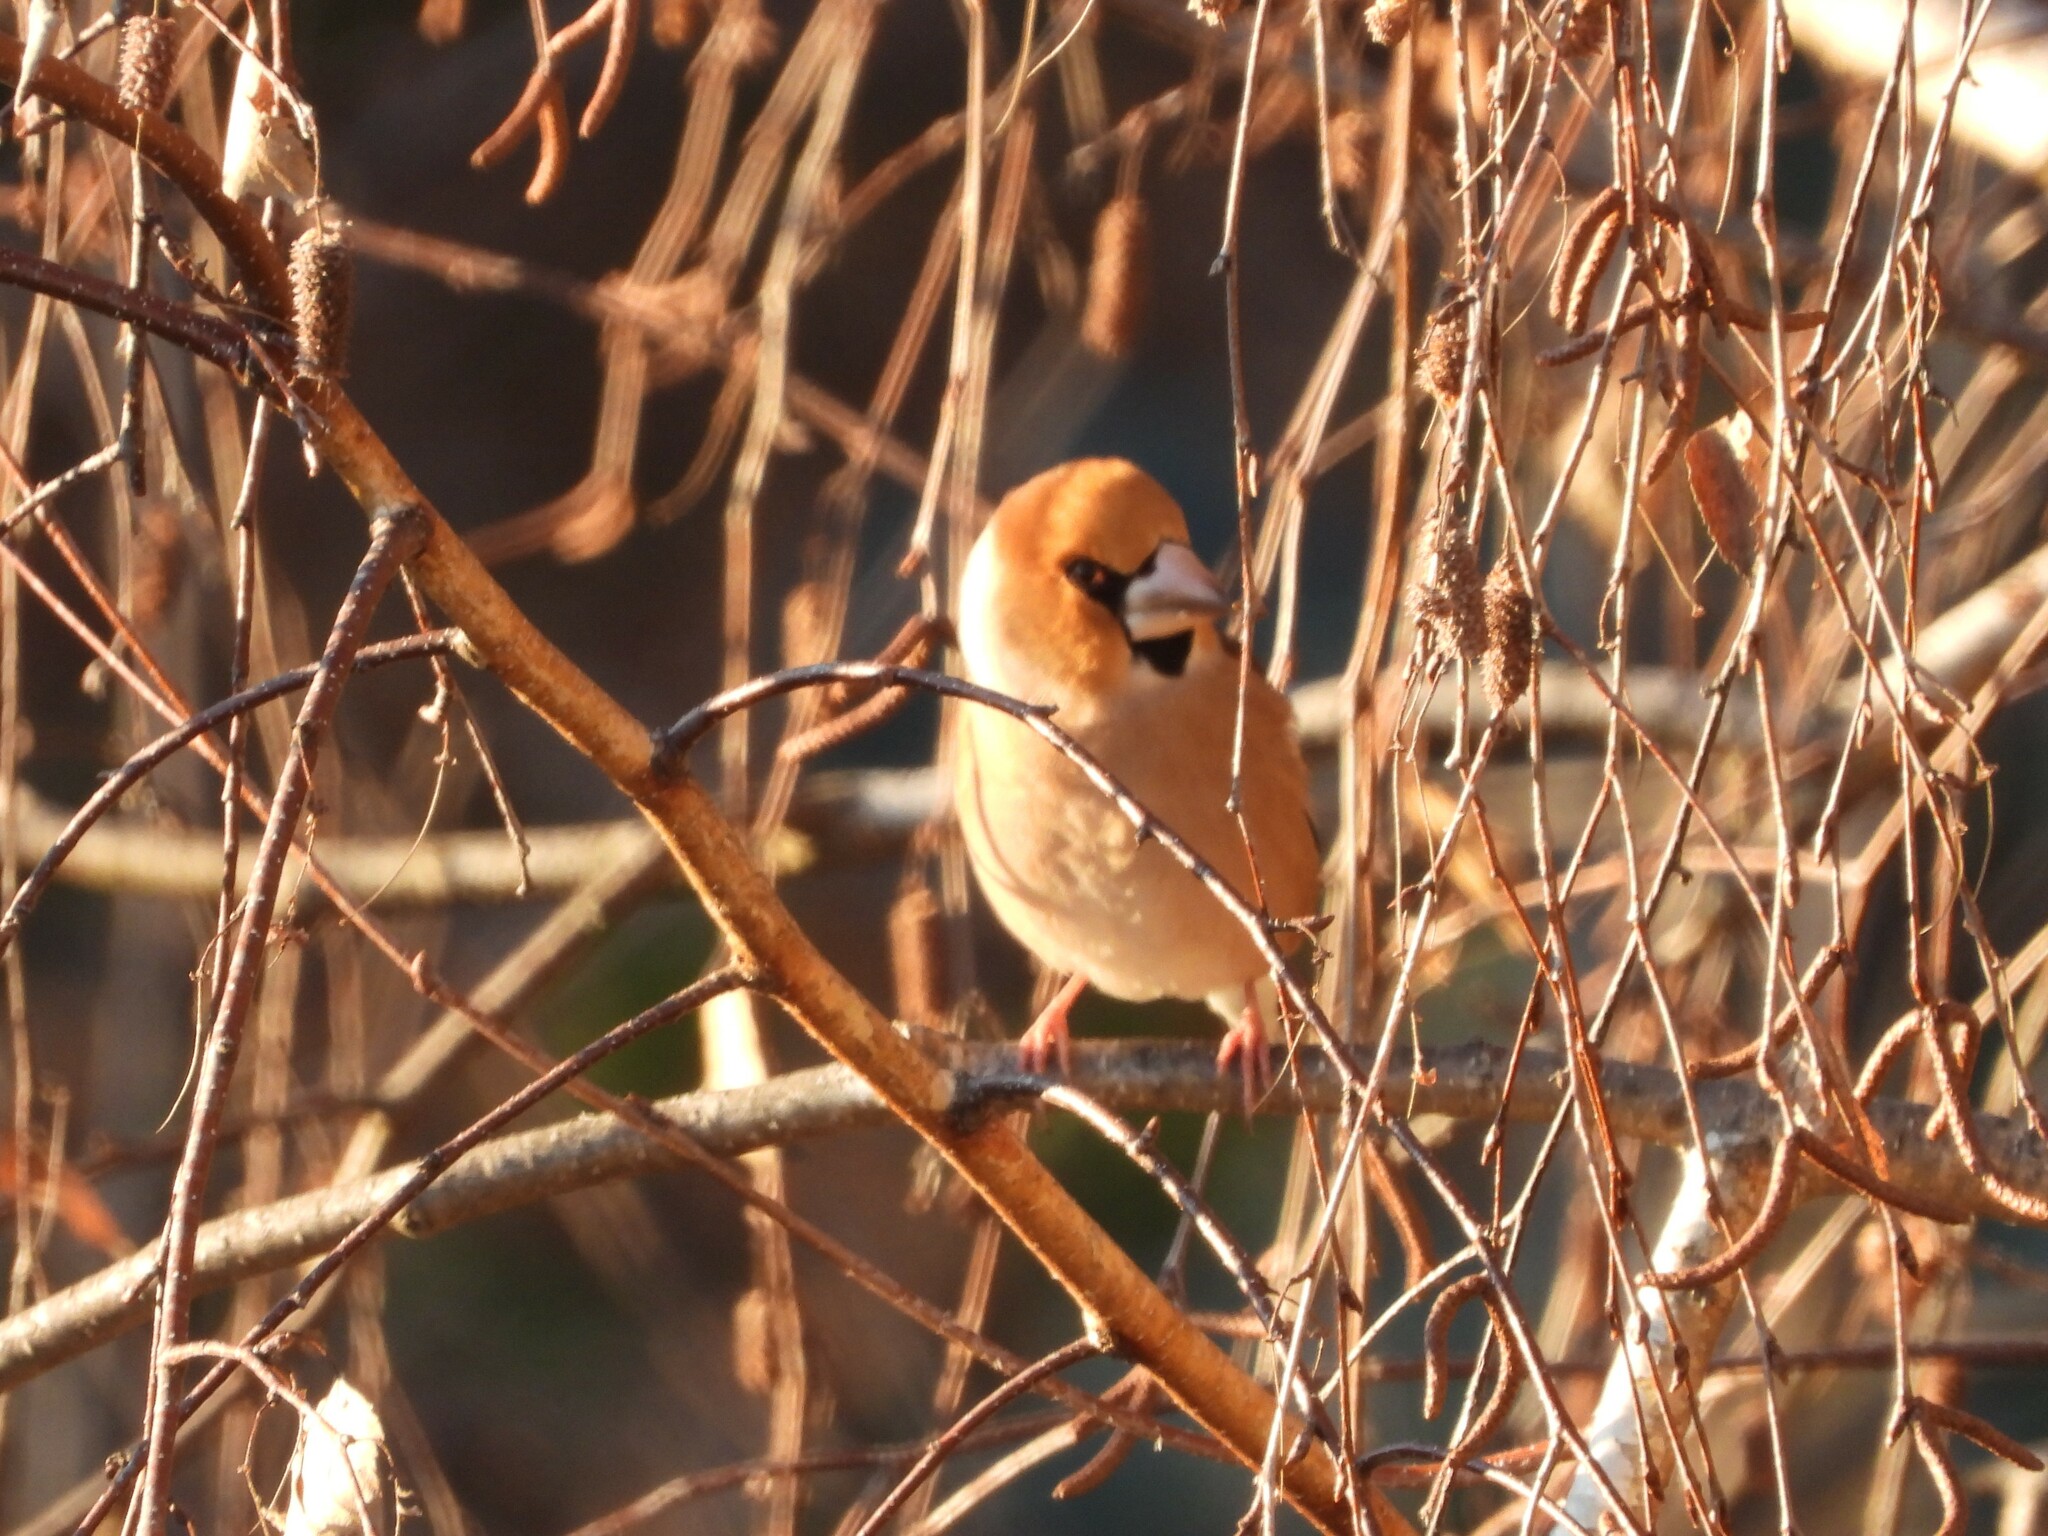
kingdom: Animalia
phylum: Chordata
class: Aves
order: Passeriformes
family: Fringillidae
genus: Coccothraustes
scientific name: Coccothraustes coccothraustes
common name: Hawfinch
